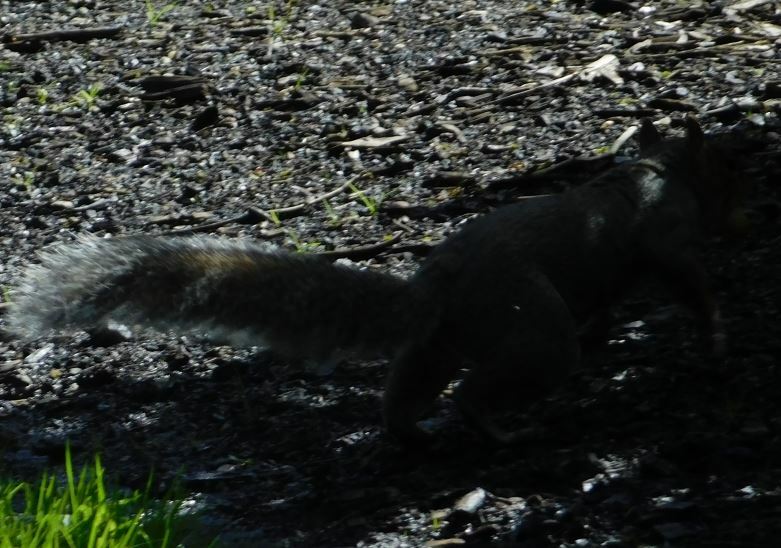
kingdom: Animalia
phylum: Chordata
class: Mammalia
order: Rodentia
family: Sciuridae
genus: Sciurus
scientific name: Sciurus carolinensis
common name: Eastern gray squirrel
